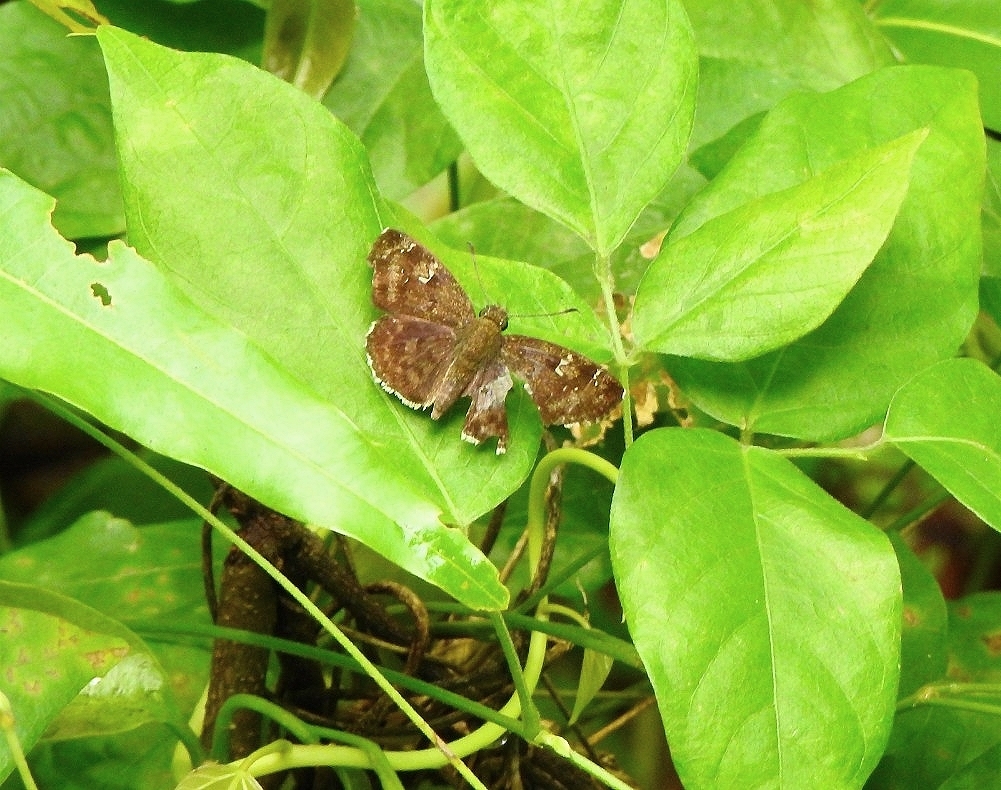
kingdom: Animalia
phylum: Arthropoda
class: Insecta
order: Lepidoptera
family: Hesperiidae
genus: Sarangesa
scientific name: Sarangesa dasahara
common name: Common small flat
